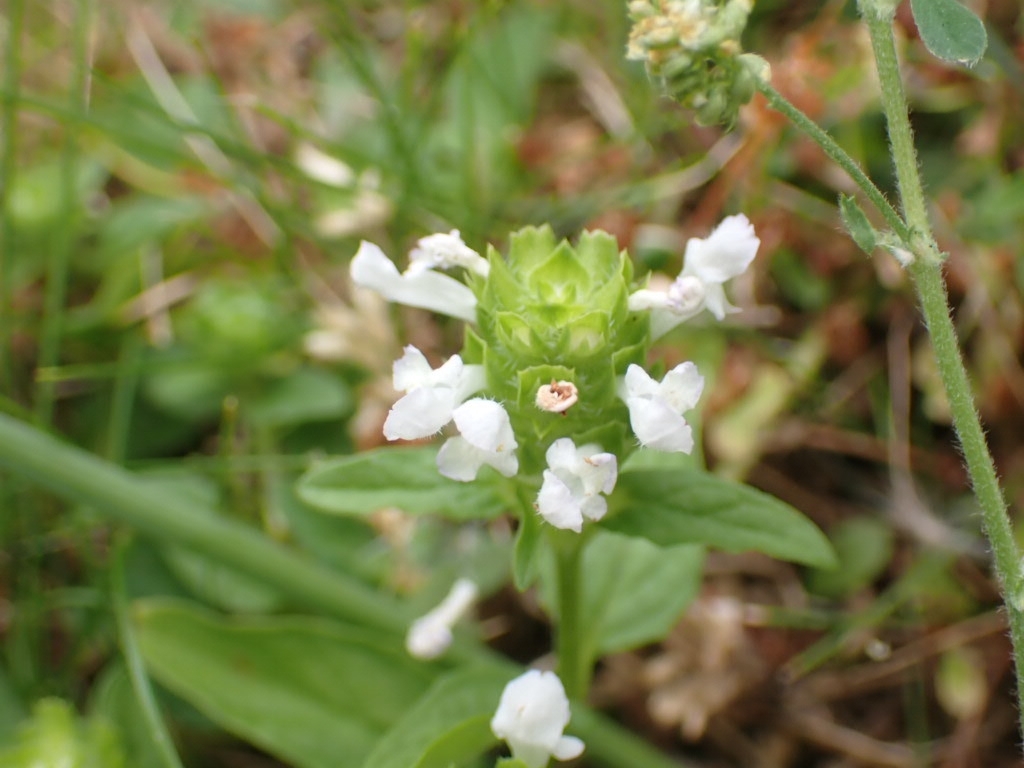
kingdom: Plantae
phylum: Tracheophyta
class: Magnoliopsida
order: Lamiales
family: Lamiaceae
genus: Prunella
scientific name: Prunella vulgaris
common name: Heal-all
